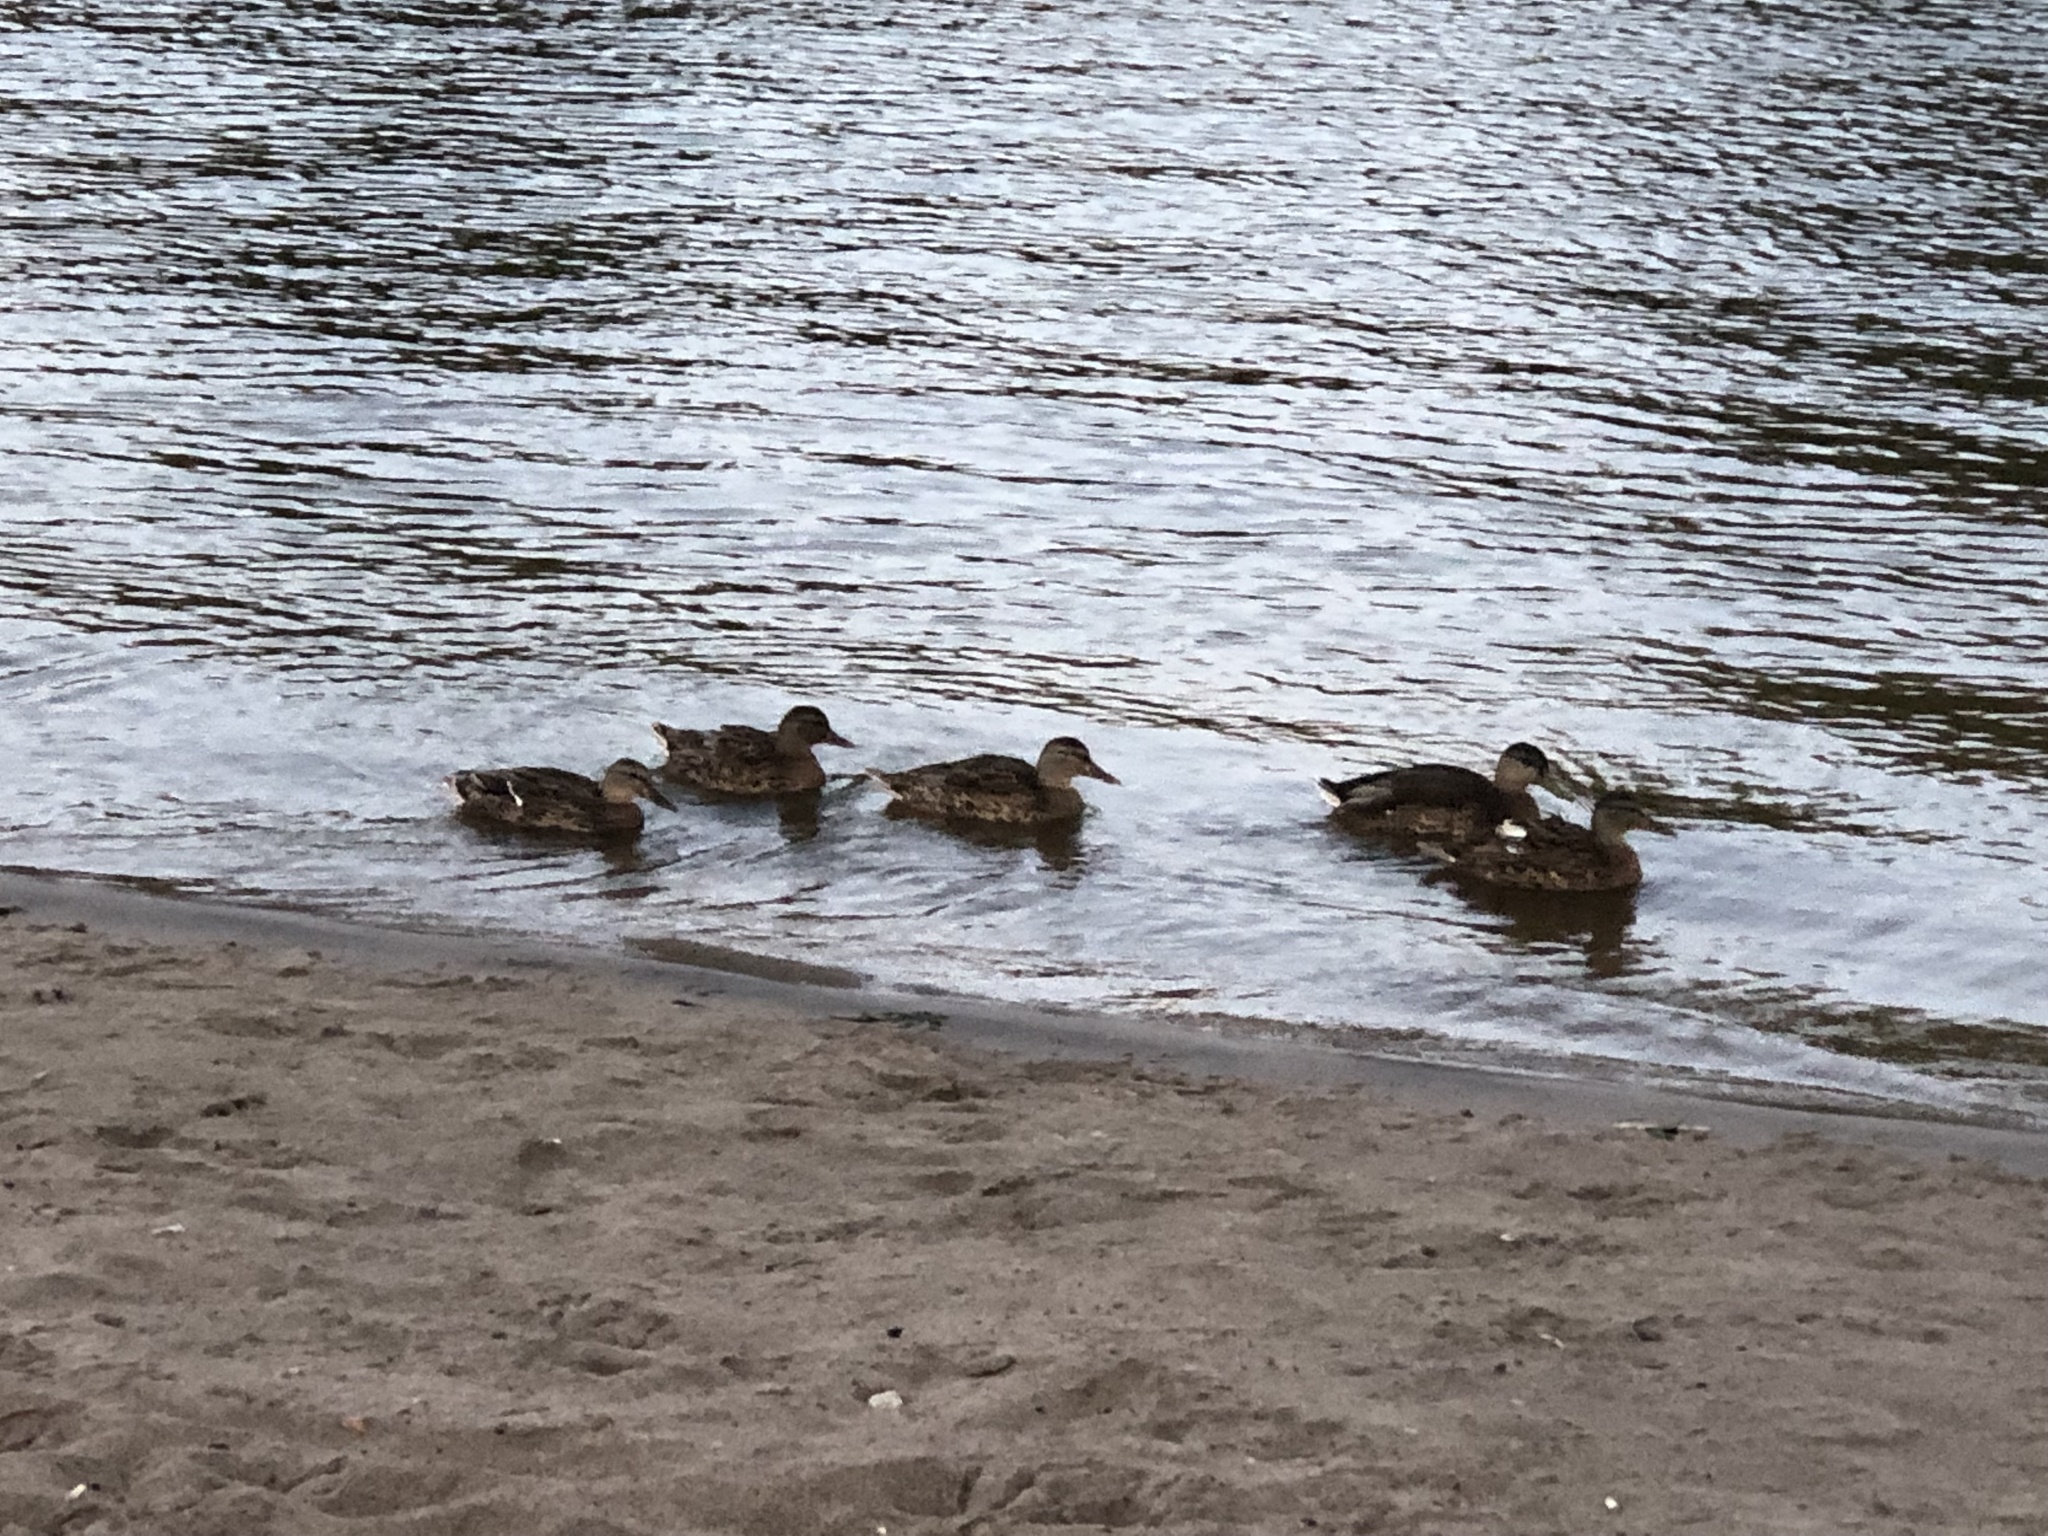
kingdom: Animalia
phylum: Chordata
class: Aves
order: Anseriformes
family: Anatidae
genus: Anas
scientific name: Anas platyrhynchos
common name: Mallard
